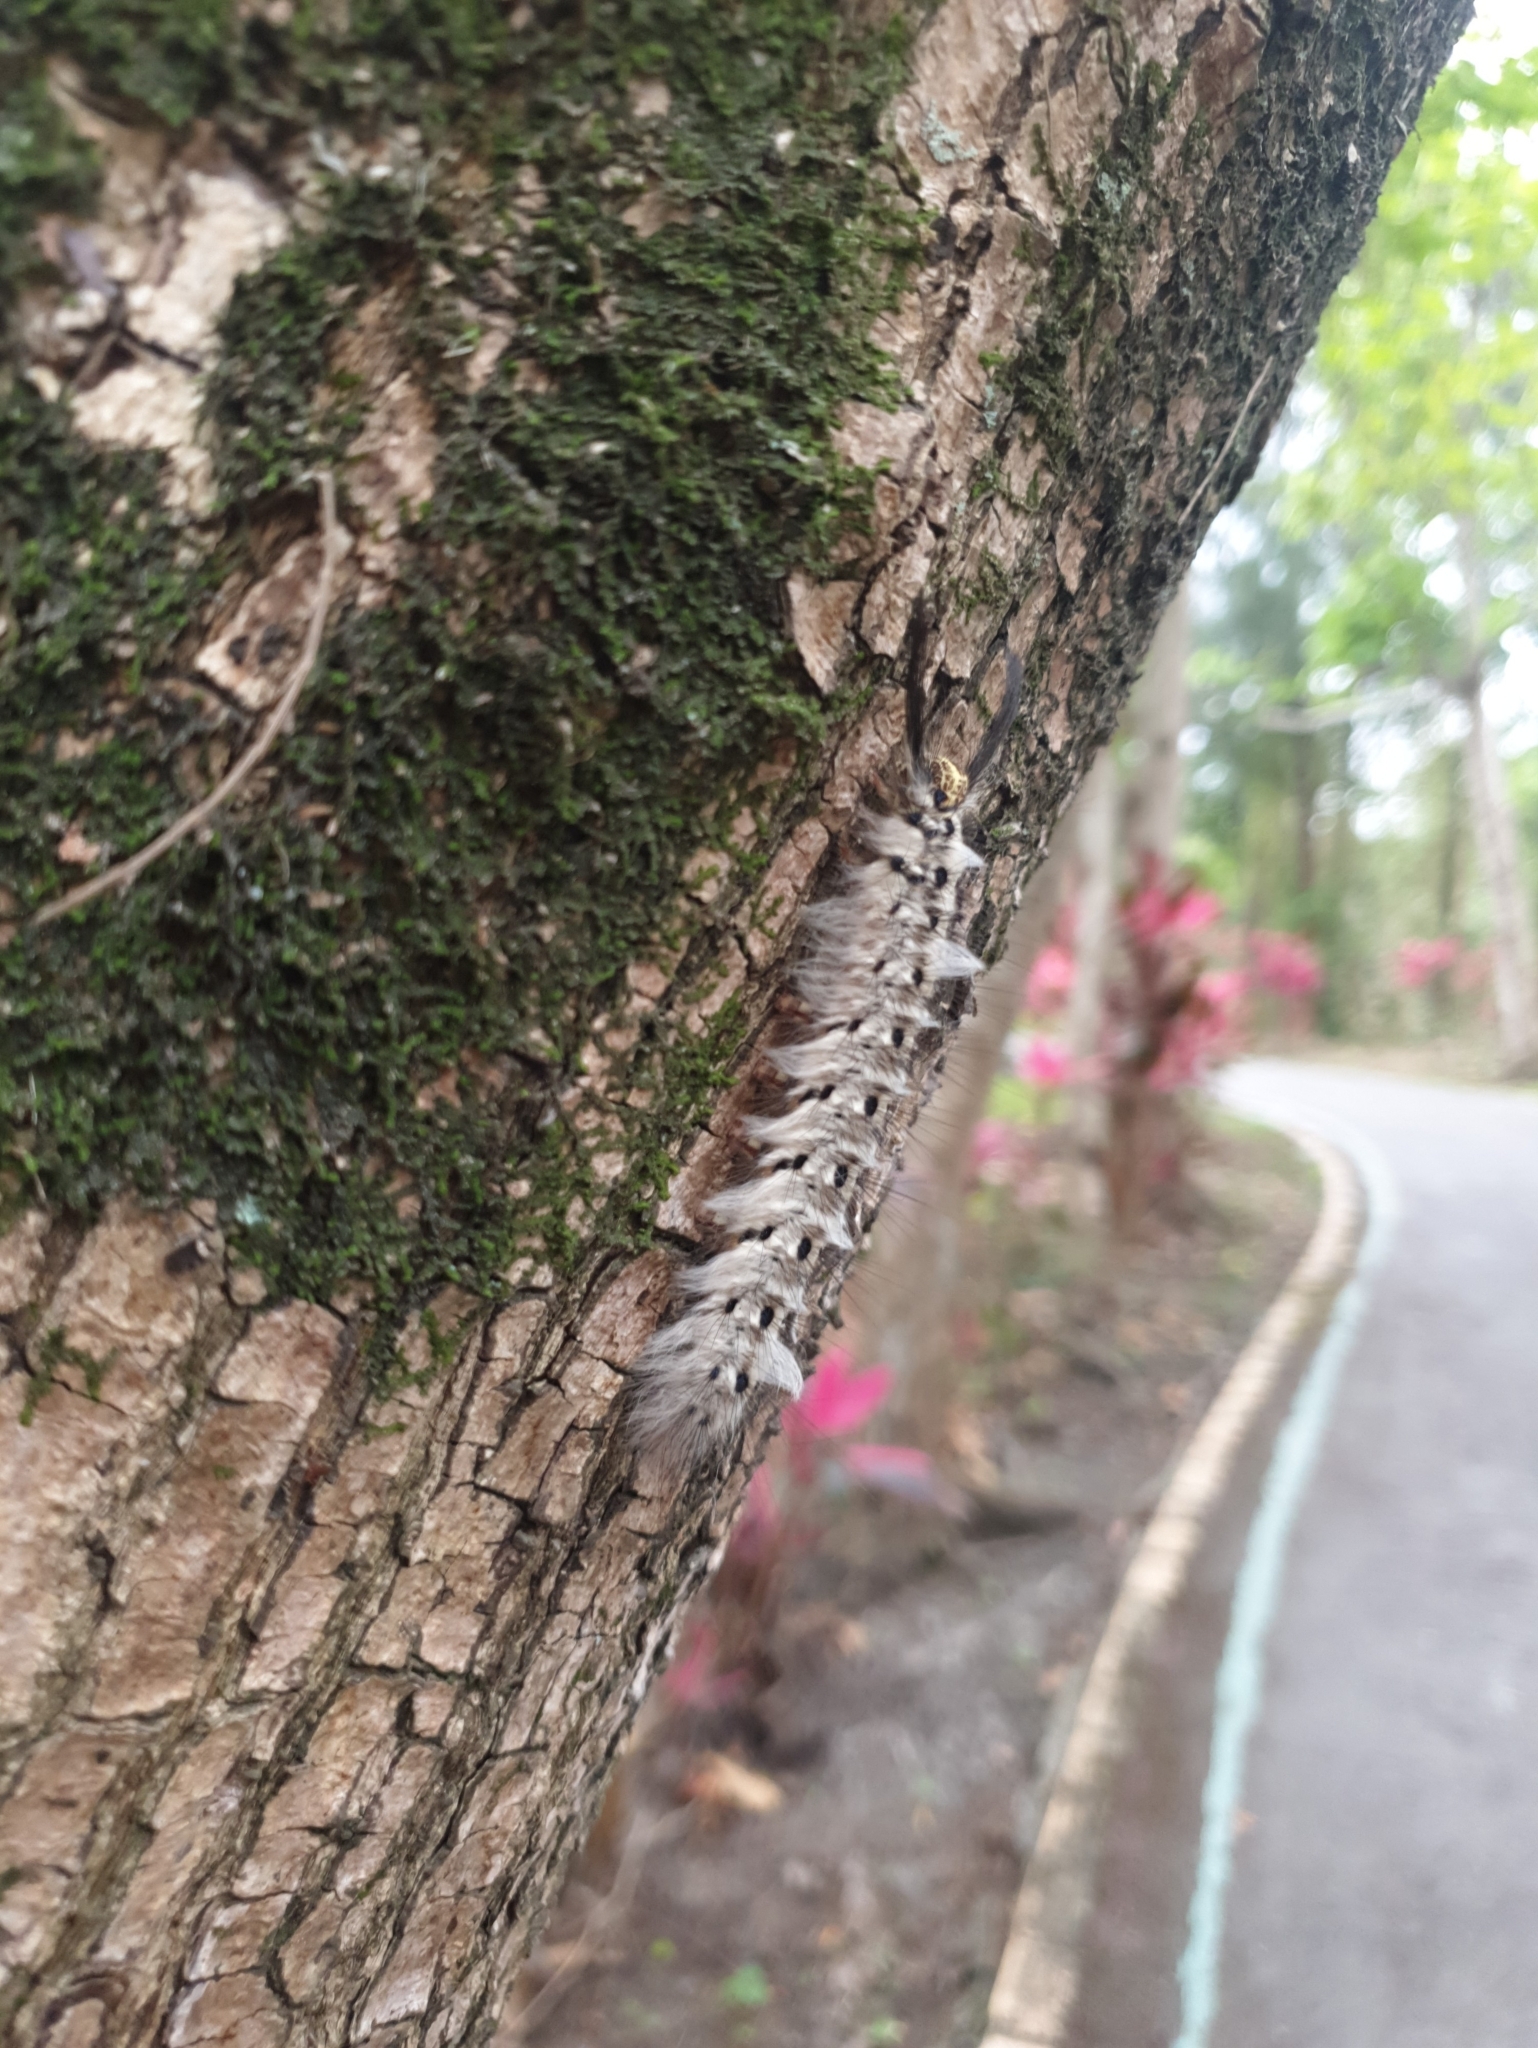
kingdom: Animalia
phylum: Arthropoda
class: Insecta
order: Lepidoptera
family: Lasiocampidae
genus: Trabala
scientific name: Trabala vishnou
